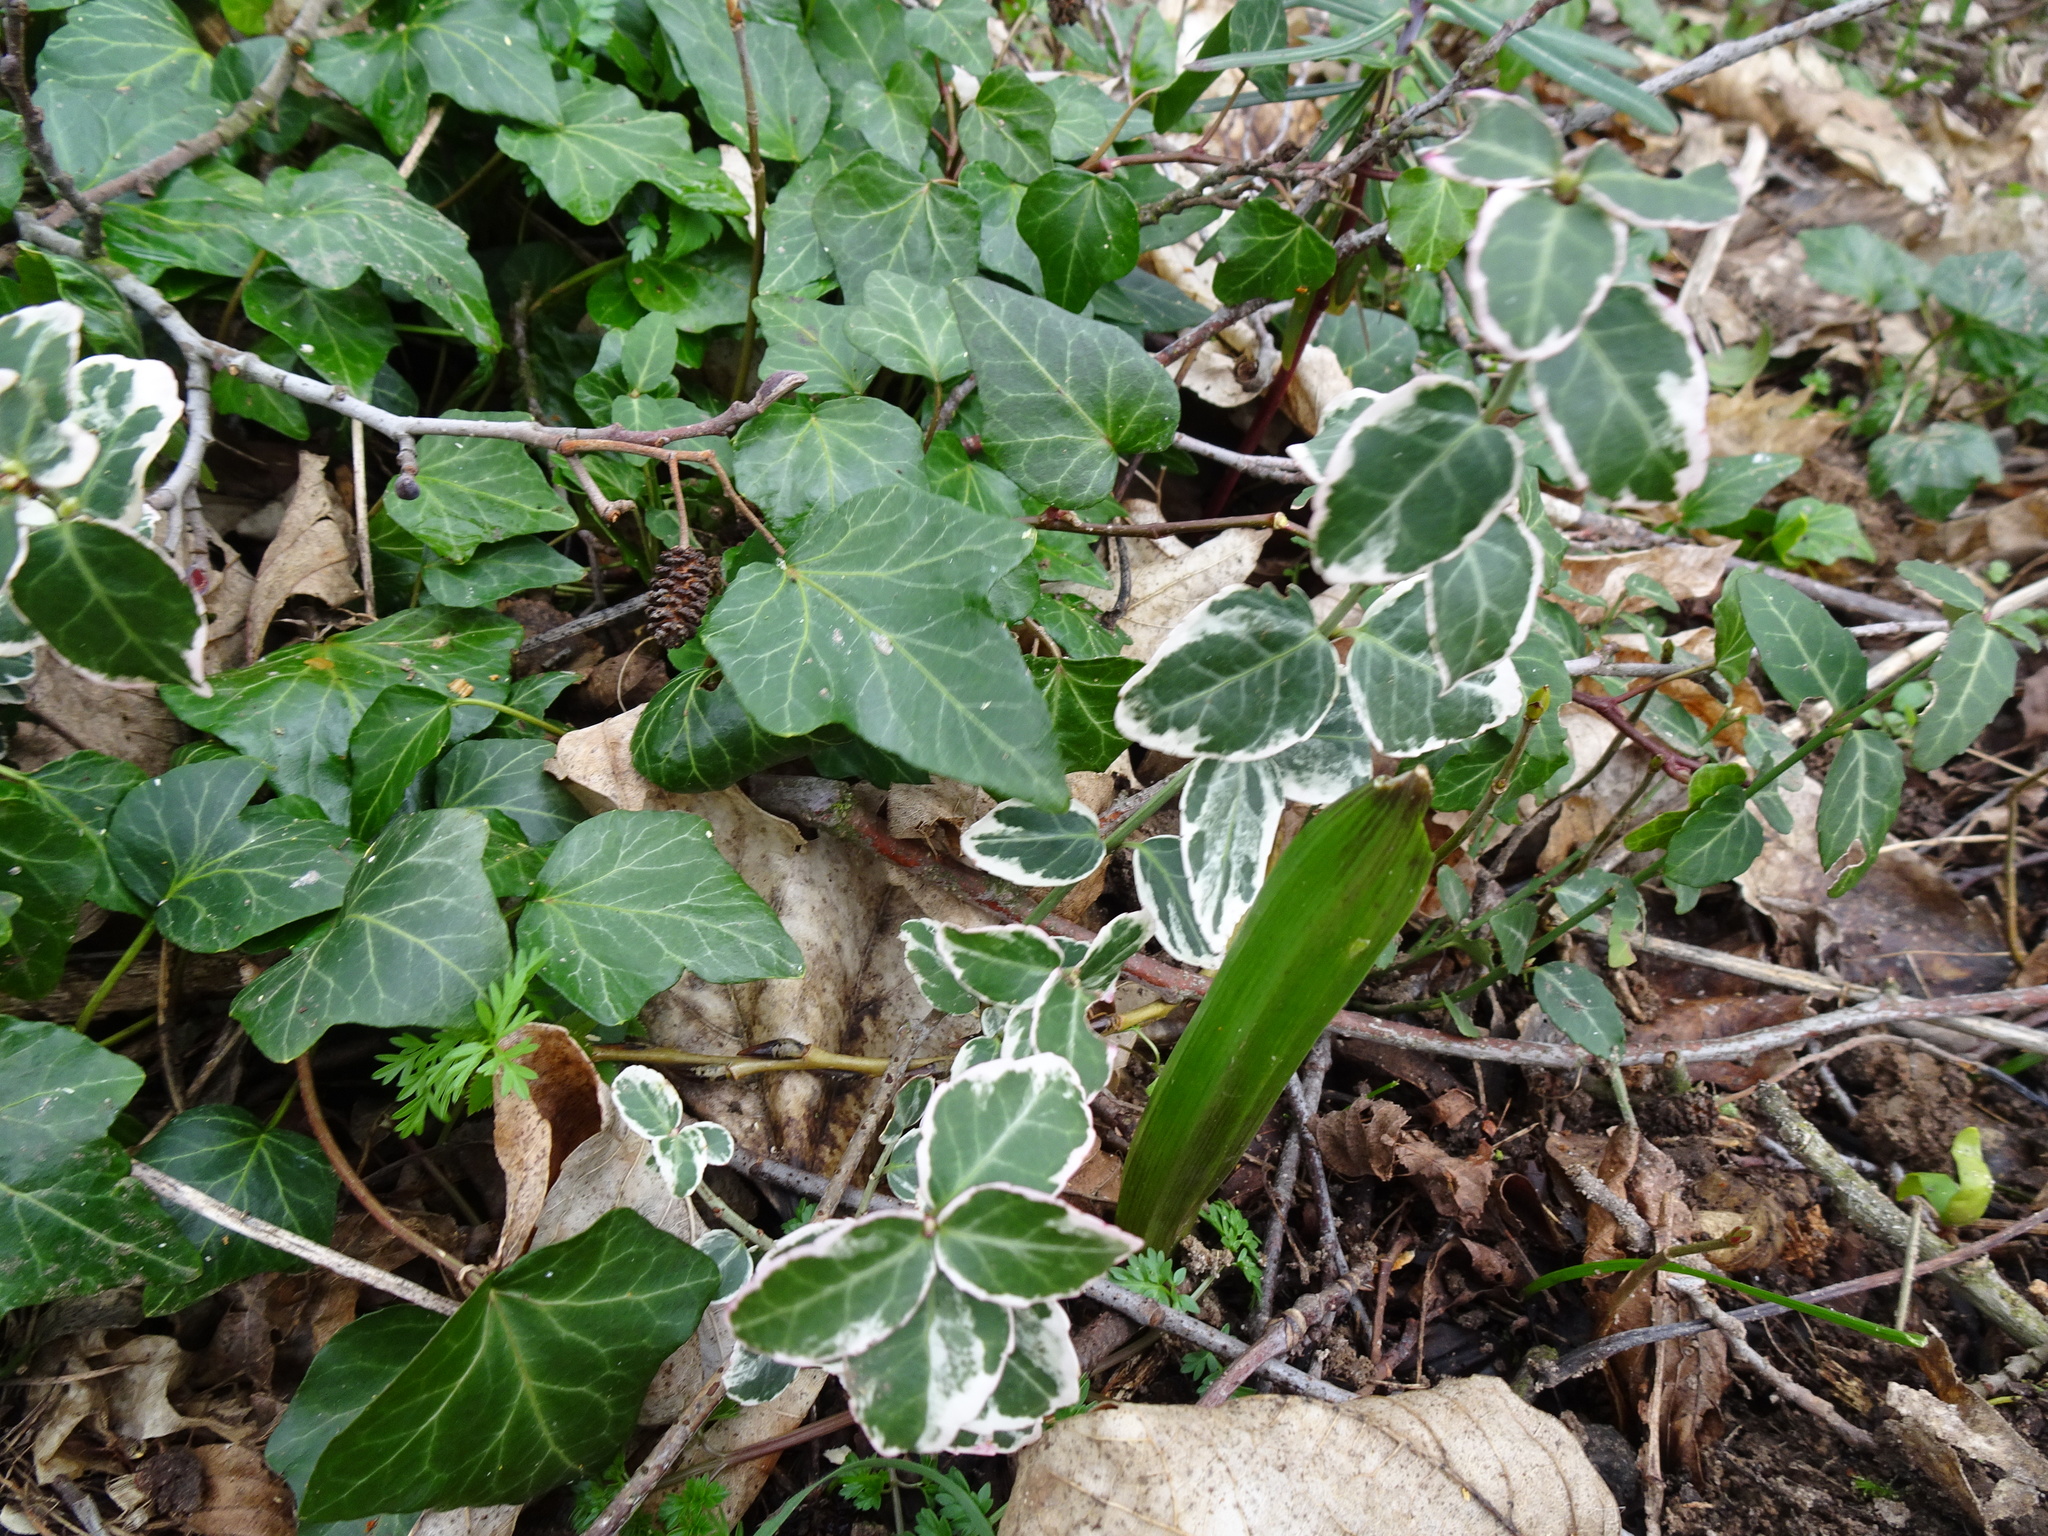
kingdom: Plantae
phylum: Tracheophyta
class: Magnoliopsida
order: Celastrales
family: Celastraceae
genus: Euonymus
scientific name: Euonymus fortunei
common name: Climbing euonymus
